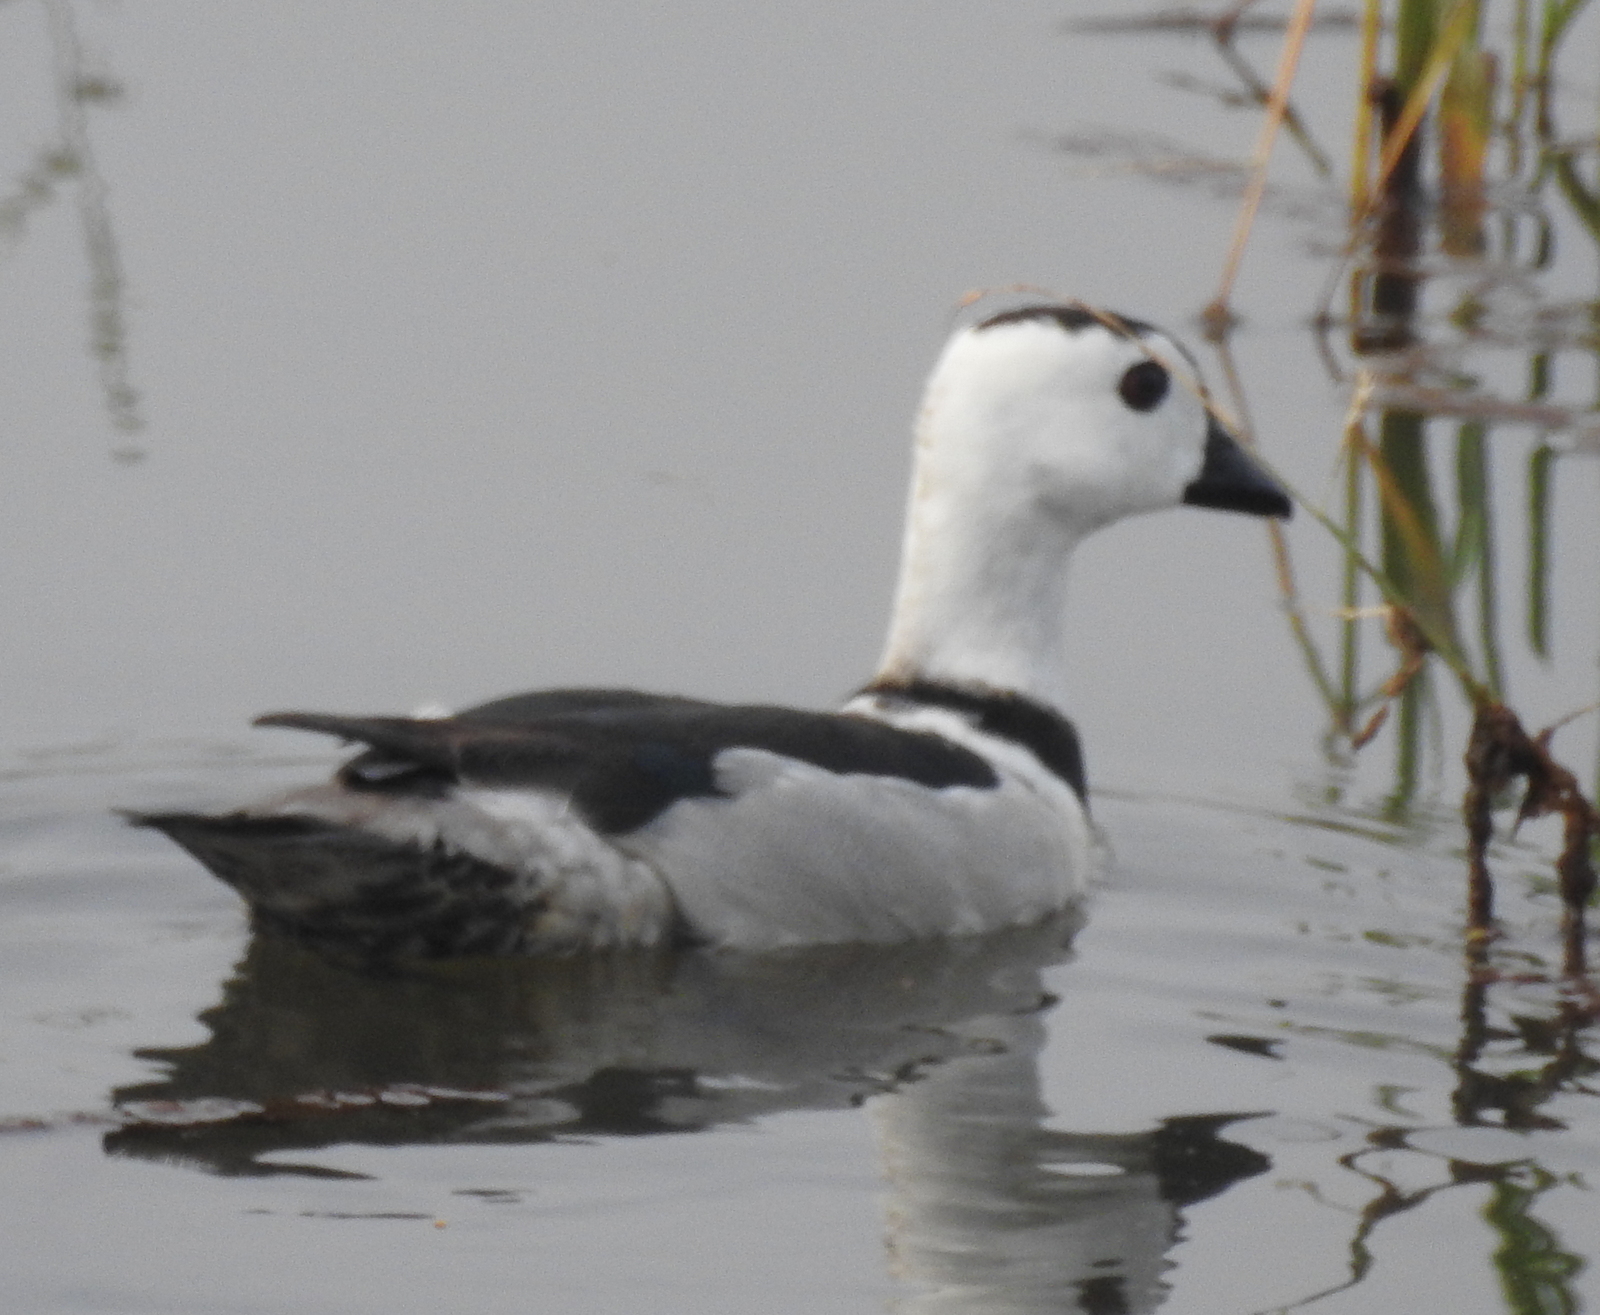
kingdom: Animalia
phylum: Chordata
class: Aves
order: Anseriformes
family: Anatidae
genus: Nettapus
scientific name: Nettapus coromandelianus
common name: Cotton pygmy-goose
